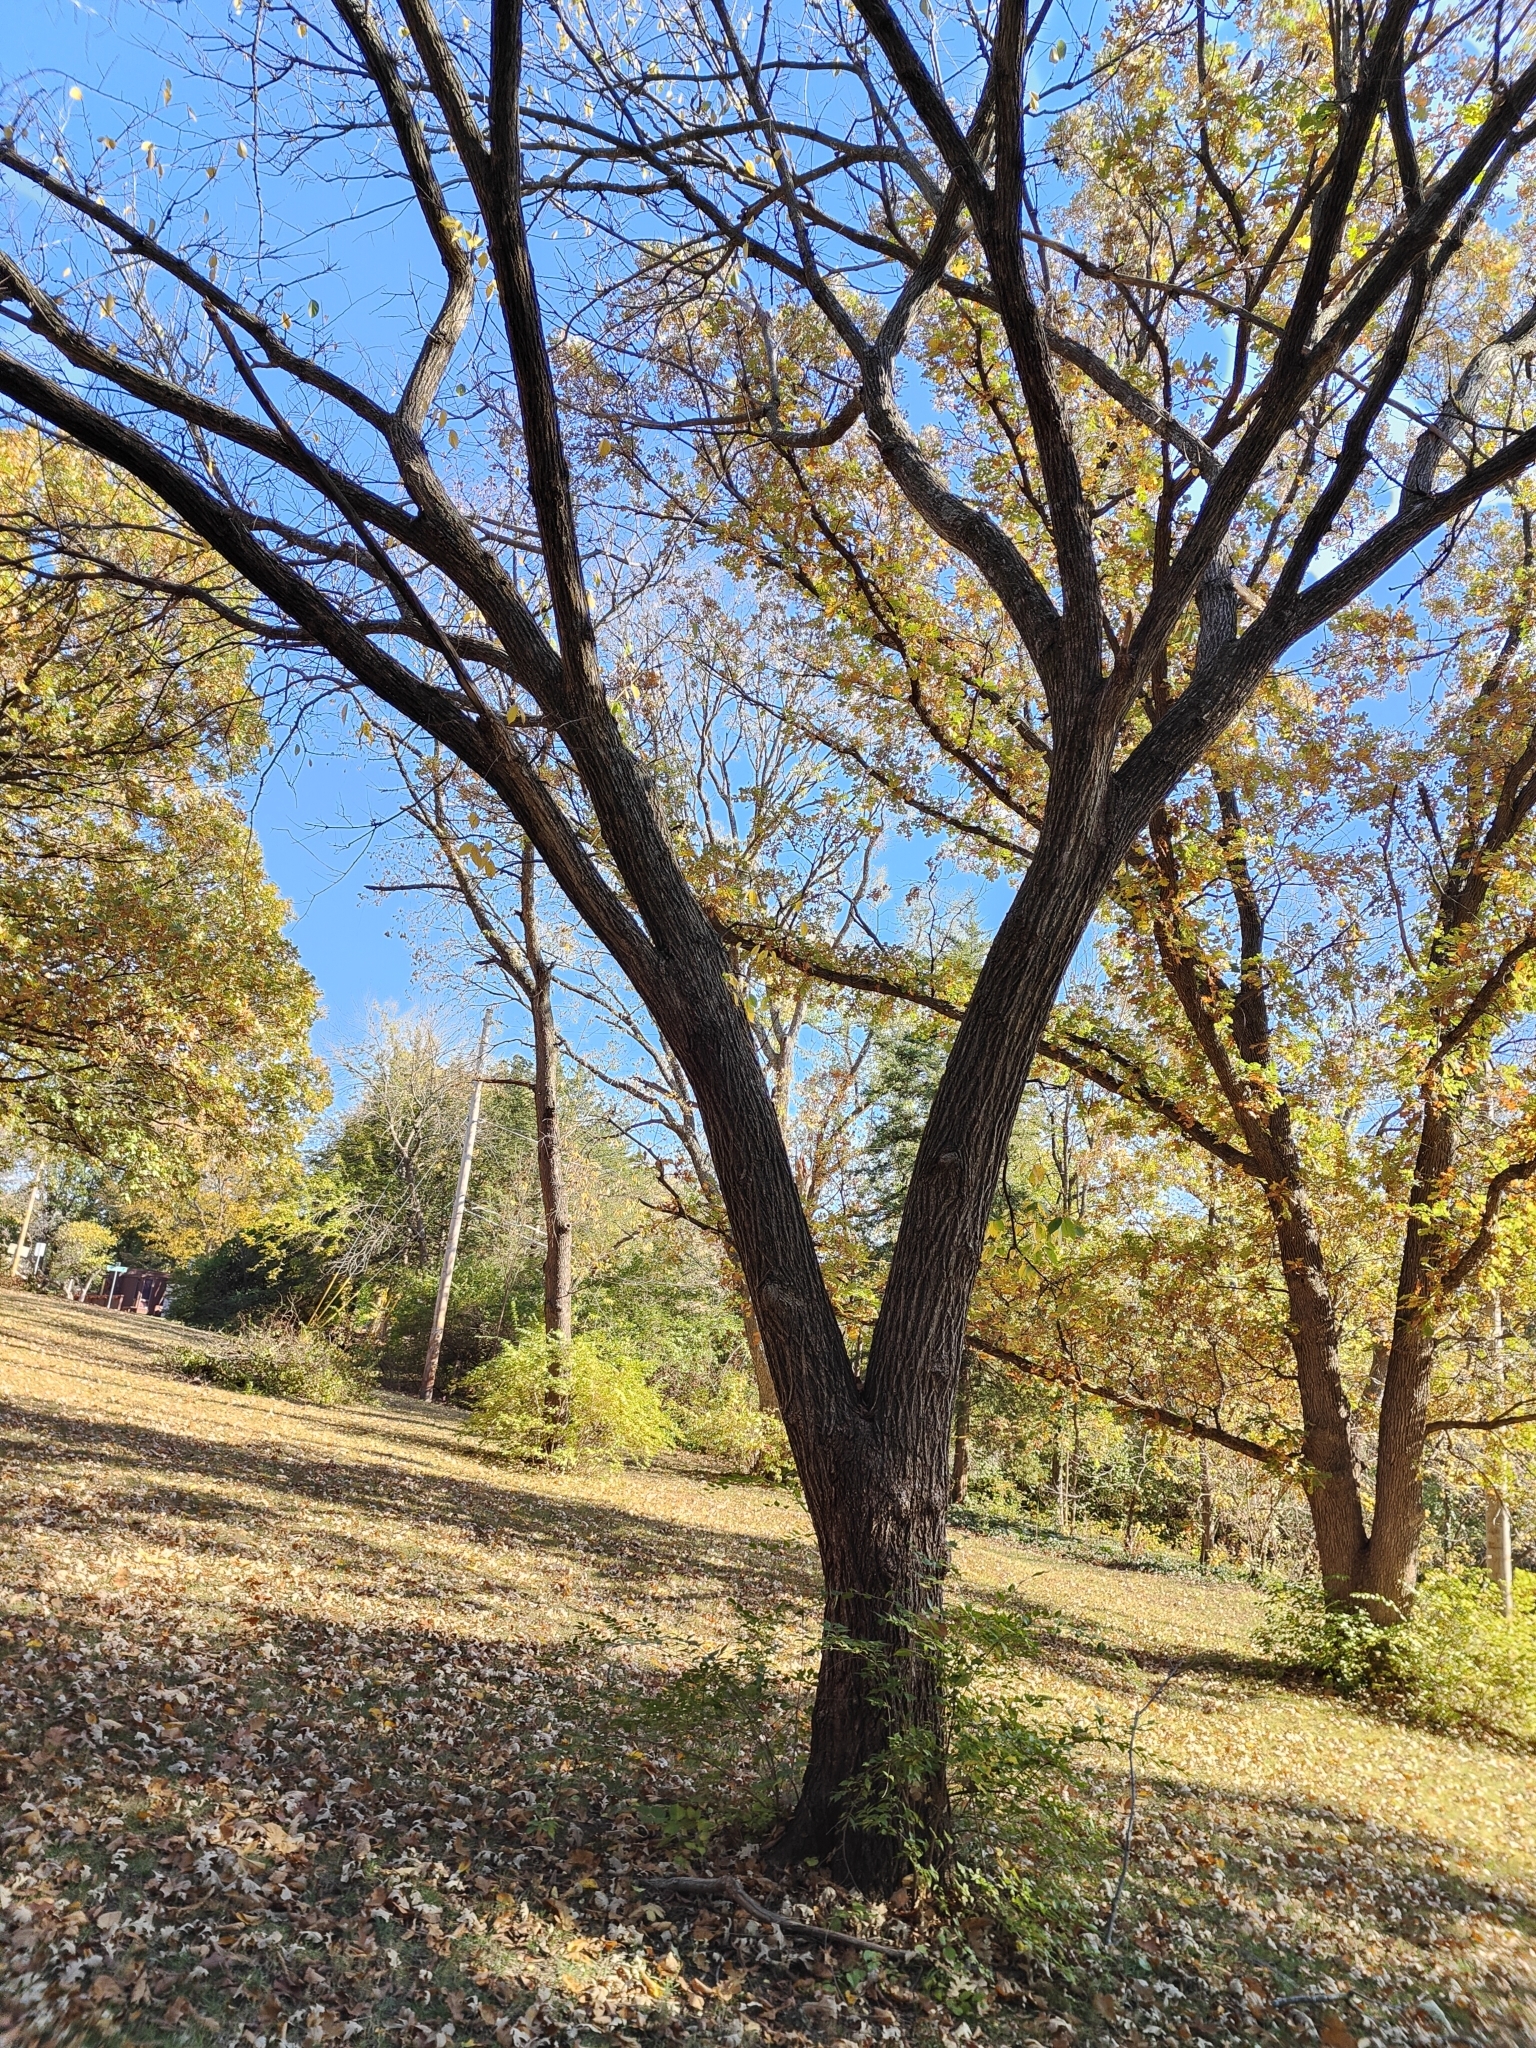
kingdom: Plantae
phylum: Tracheophyta
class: Magnoliopsida
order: Rosales
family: Ulmaceae
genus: Ulmus
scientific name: Ulmus americana
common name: American elm
